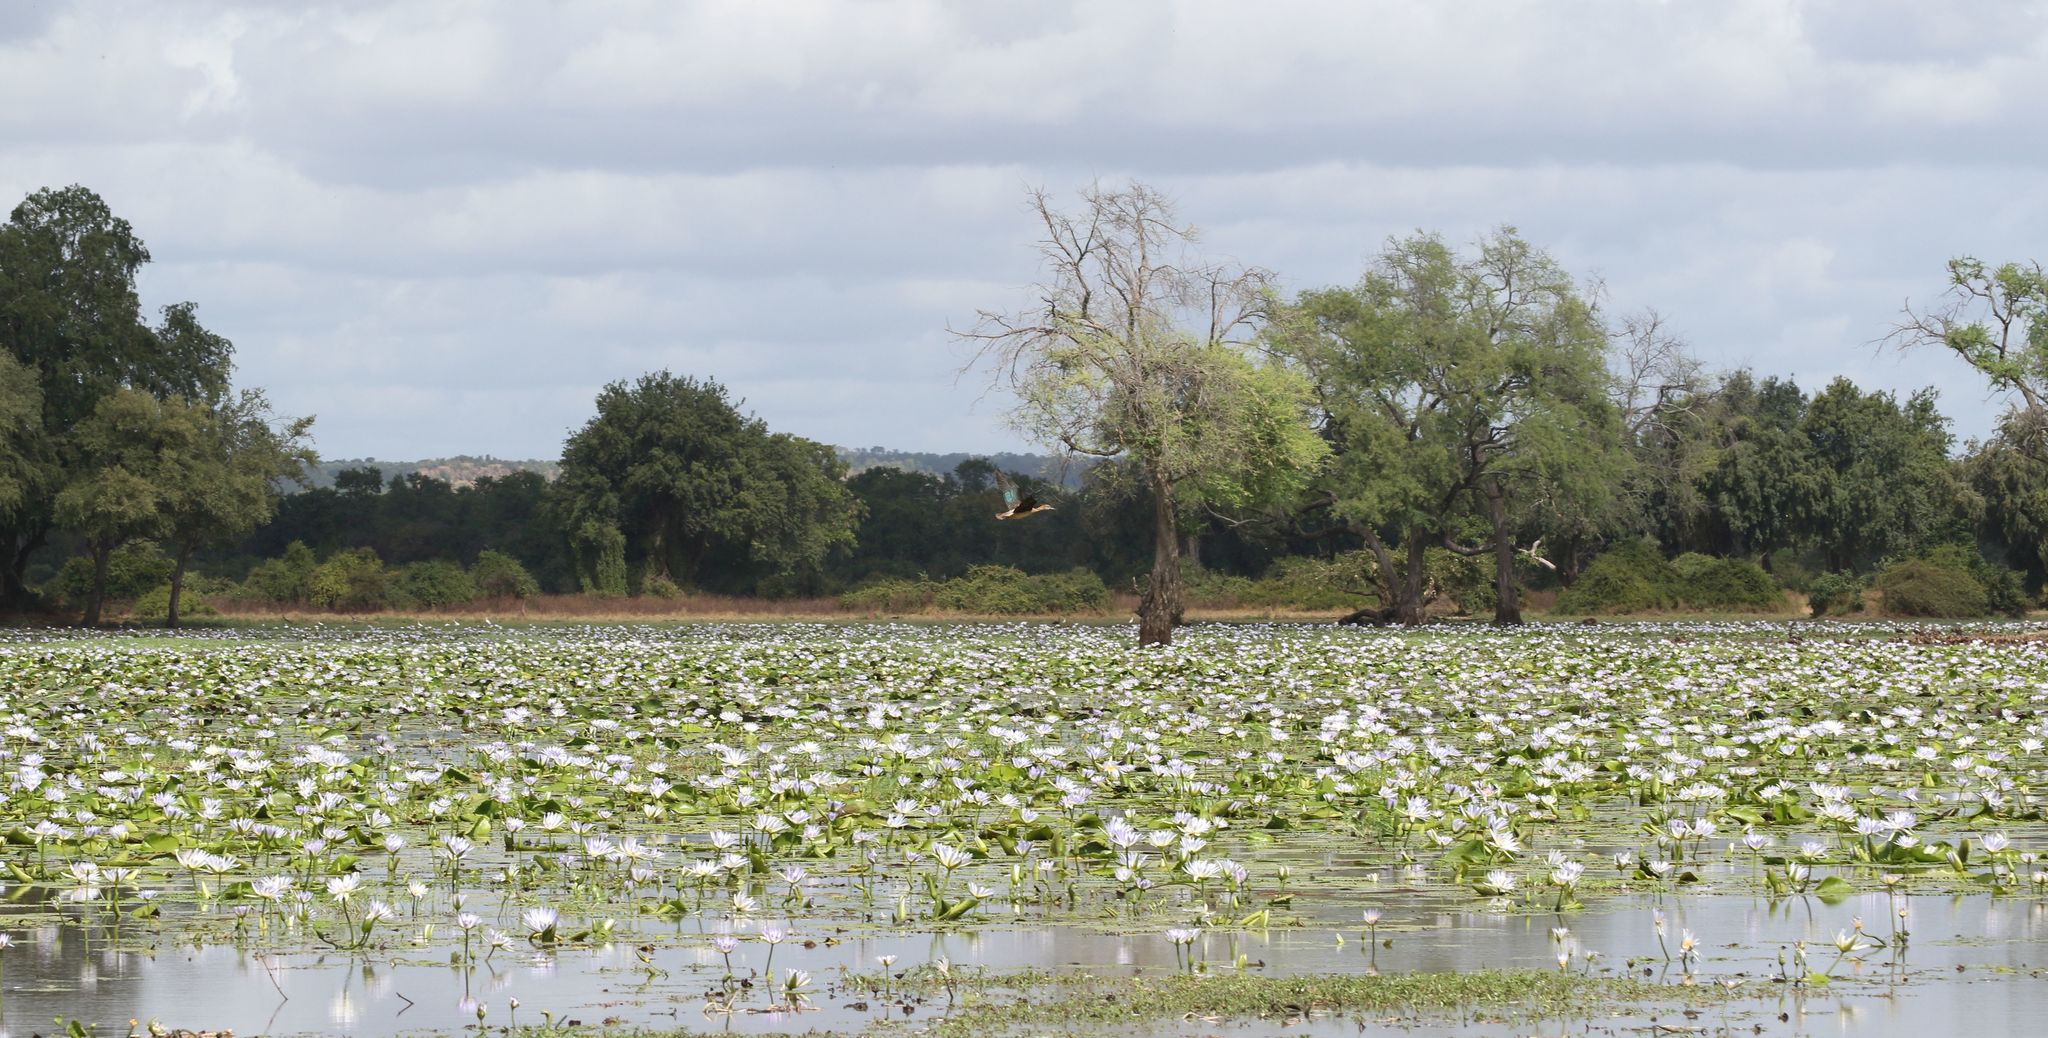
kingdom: Animalia
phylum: Chordata
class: Aves
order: Anseriformes
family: Anatidae
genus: Sarkidiornis
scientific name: Sarkidiornis melanotos
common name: Comb duck
